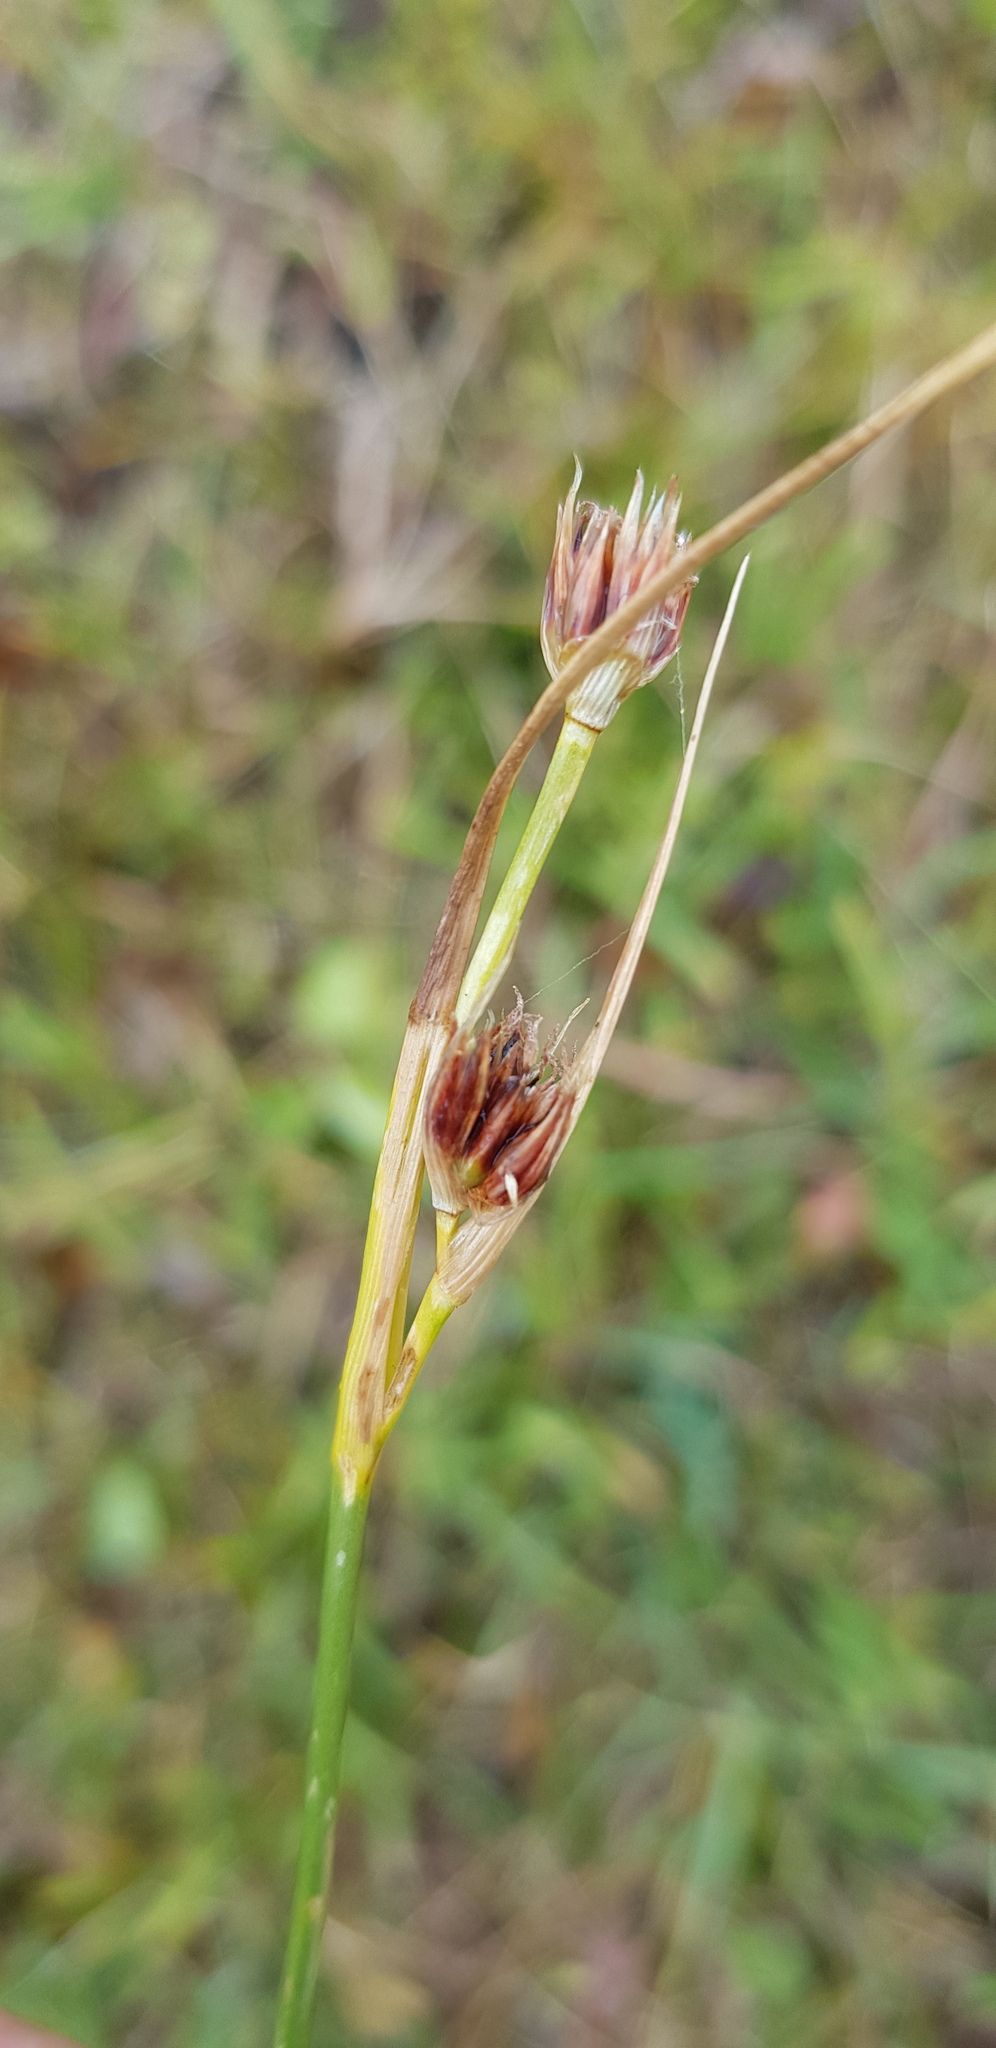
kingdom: Plantae
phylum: Tracheophyta
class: Liliopsida
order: Poales
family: Juncaceae
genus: Juncus
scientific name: Juncus castaneus
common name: Chestnut rush
